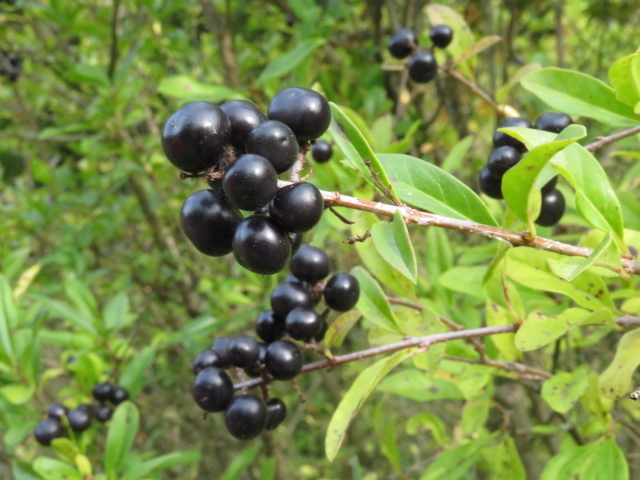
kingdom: Plantae
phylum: Tracheophyta
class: Magnoliopsida
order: Lamiales
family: Oleaceae
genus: Ligustrum
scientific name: Ligustrum vulgare
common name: Wild privet
